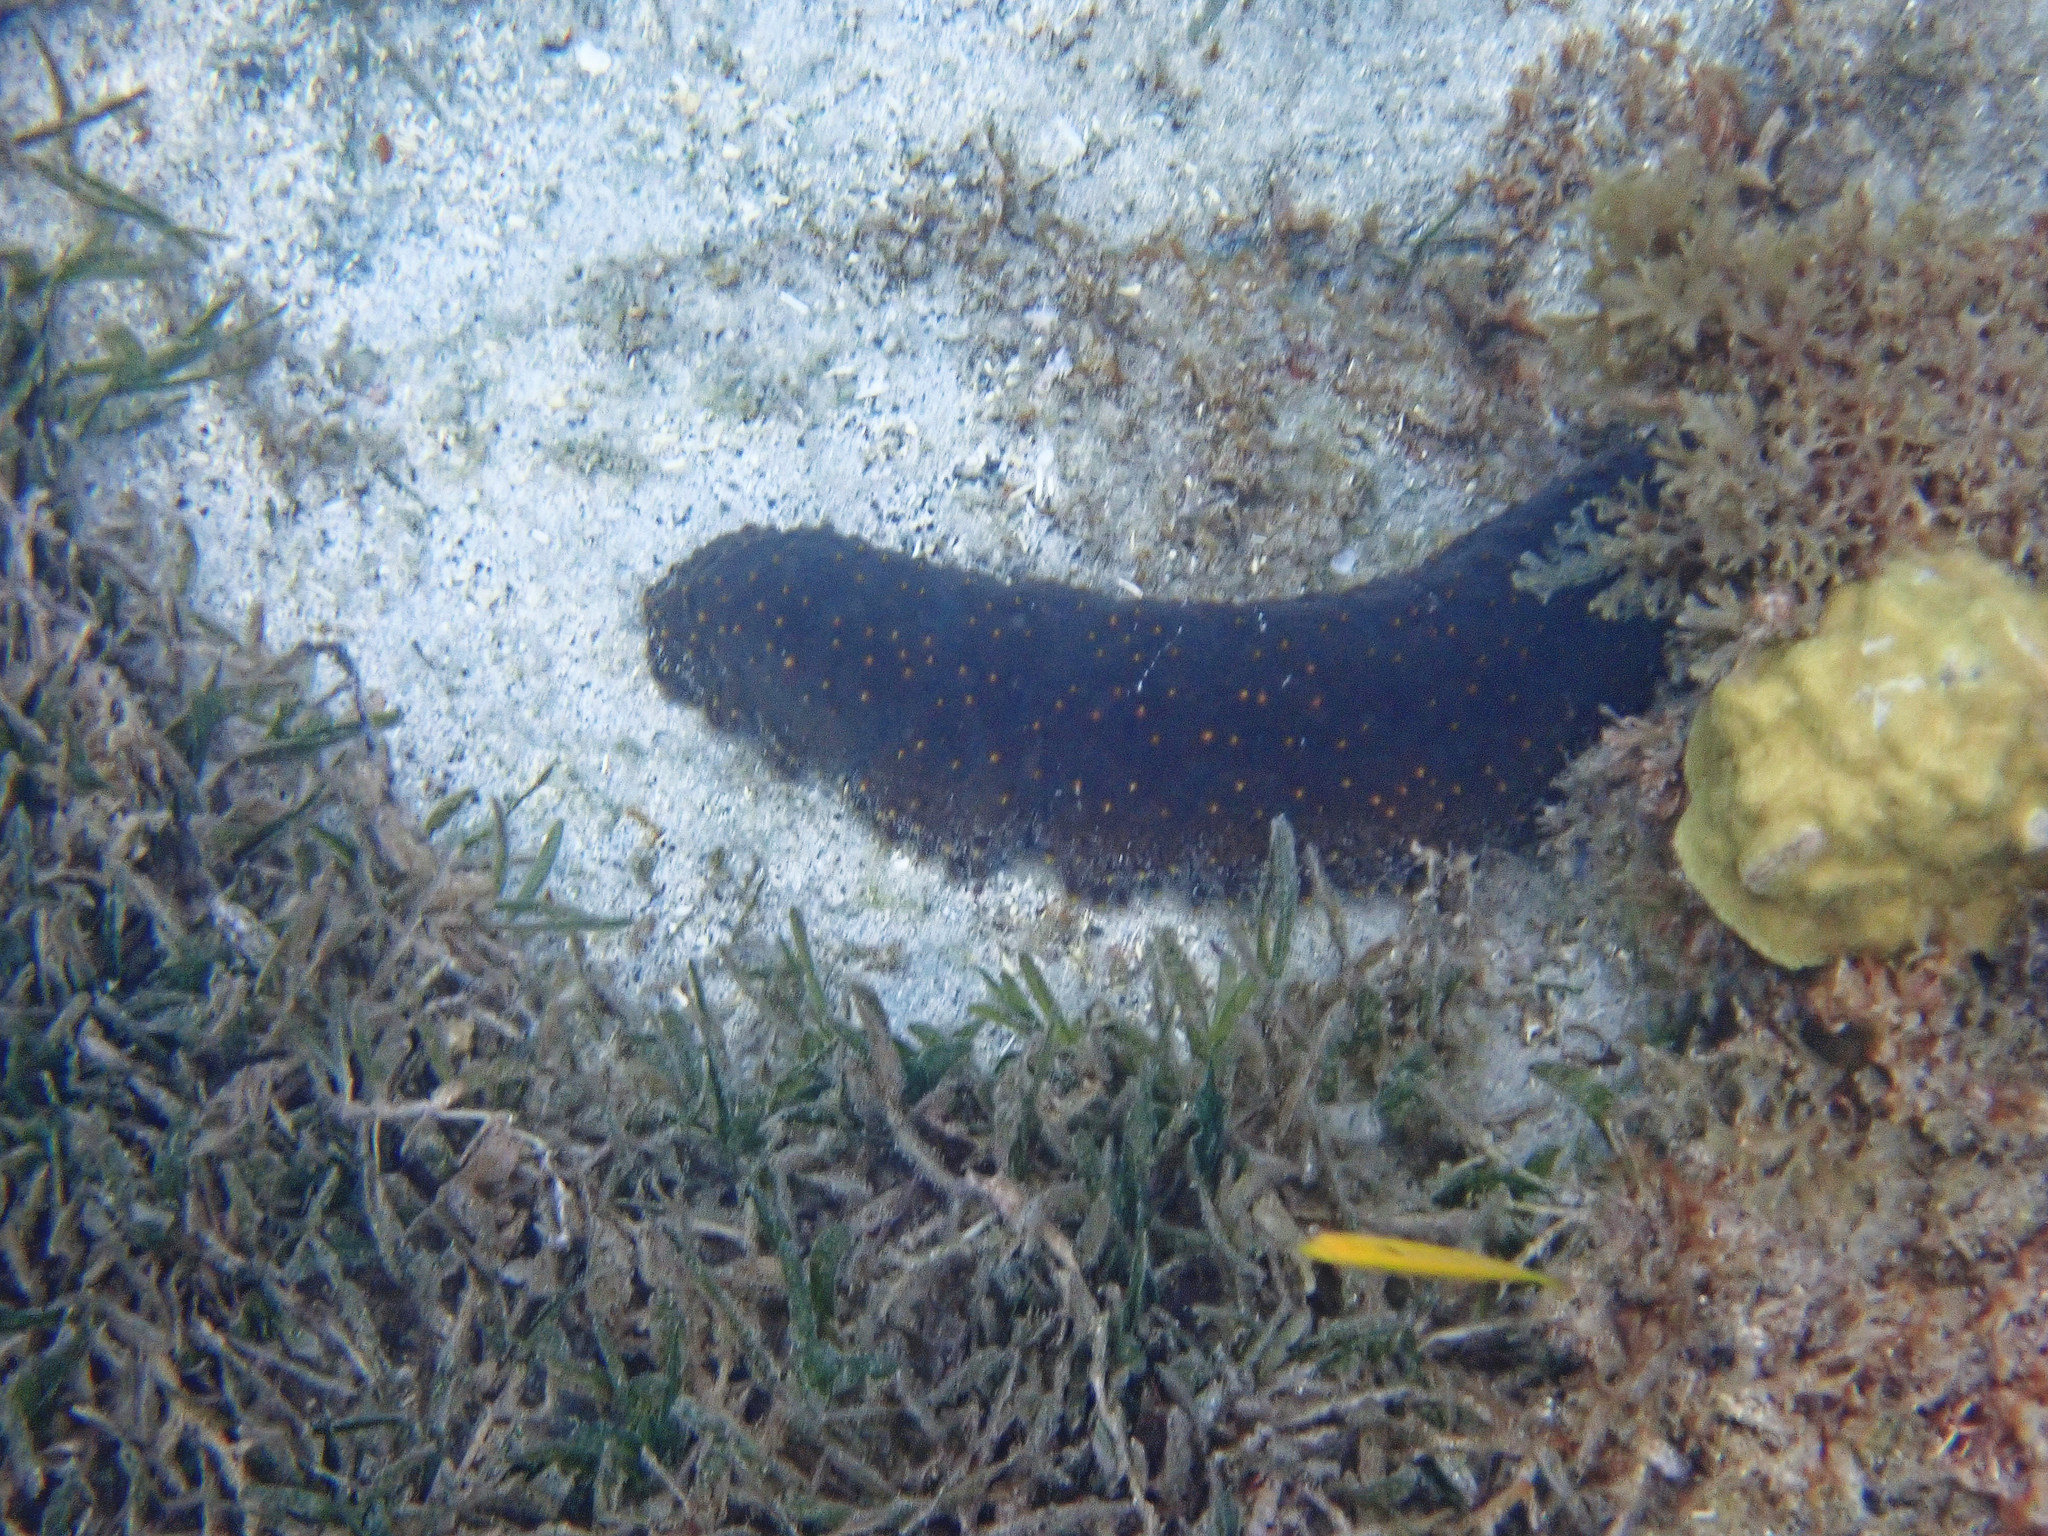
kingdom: Animalia
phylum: Echinodermata
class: Holothuroidea
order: Synallactida
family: Stichopodidae
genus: Isostichopus
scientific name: Isostichopus badionotus
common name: Chocolate chip cucumber
